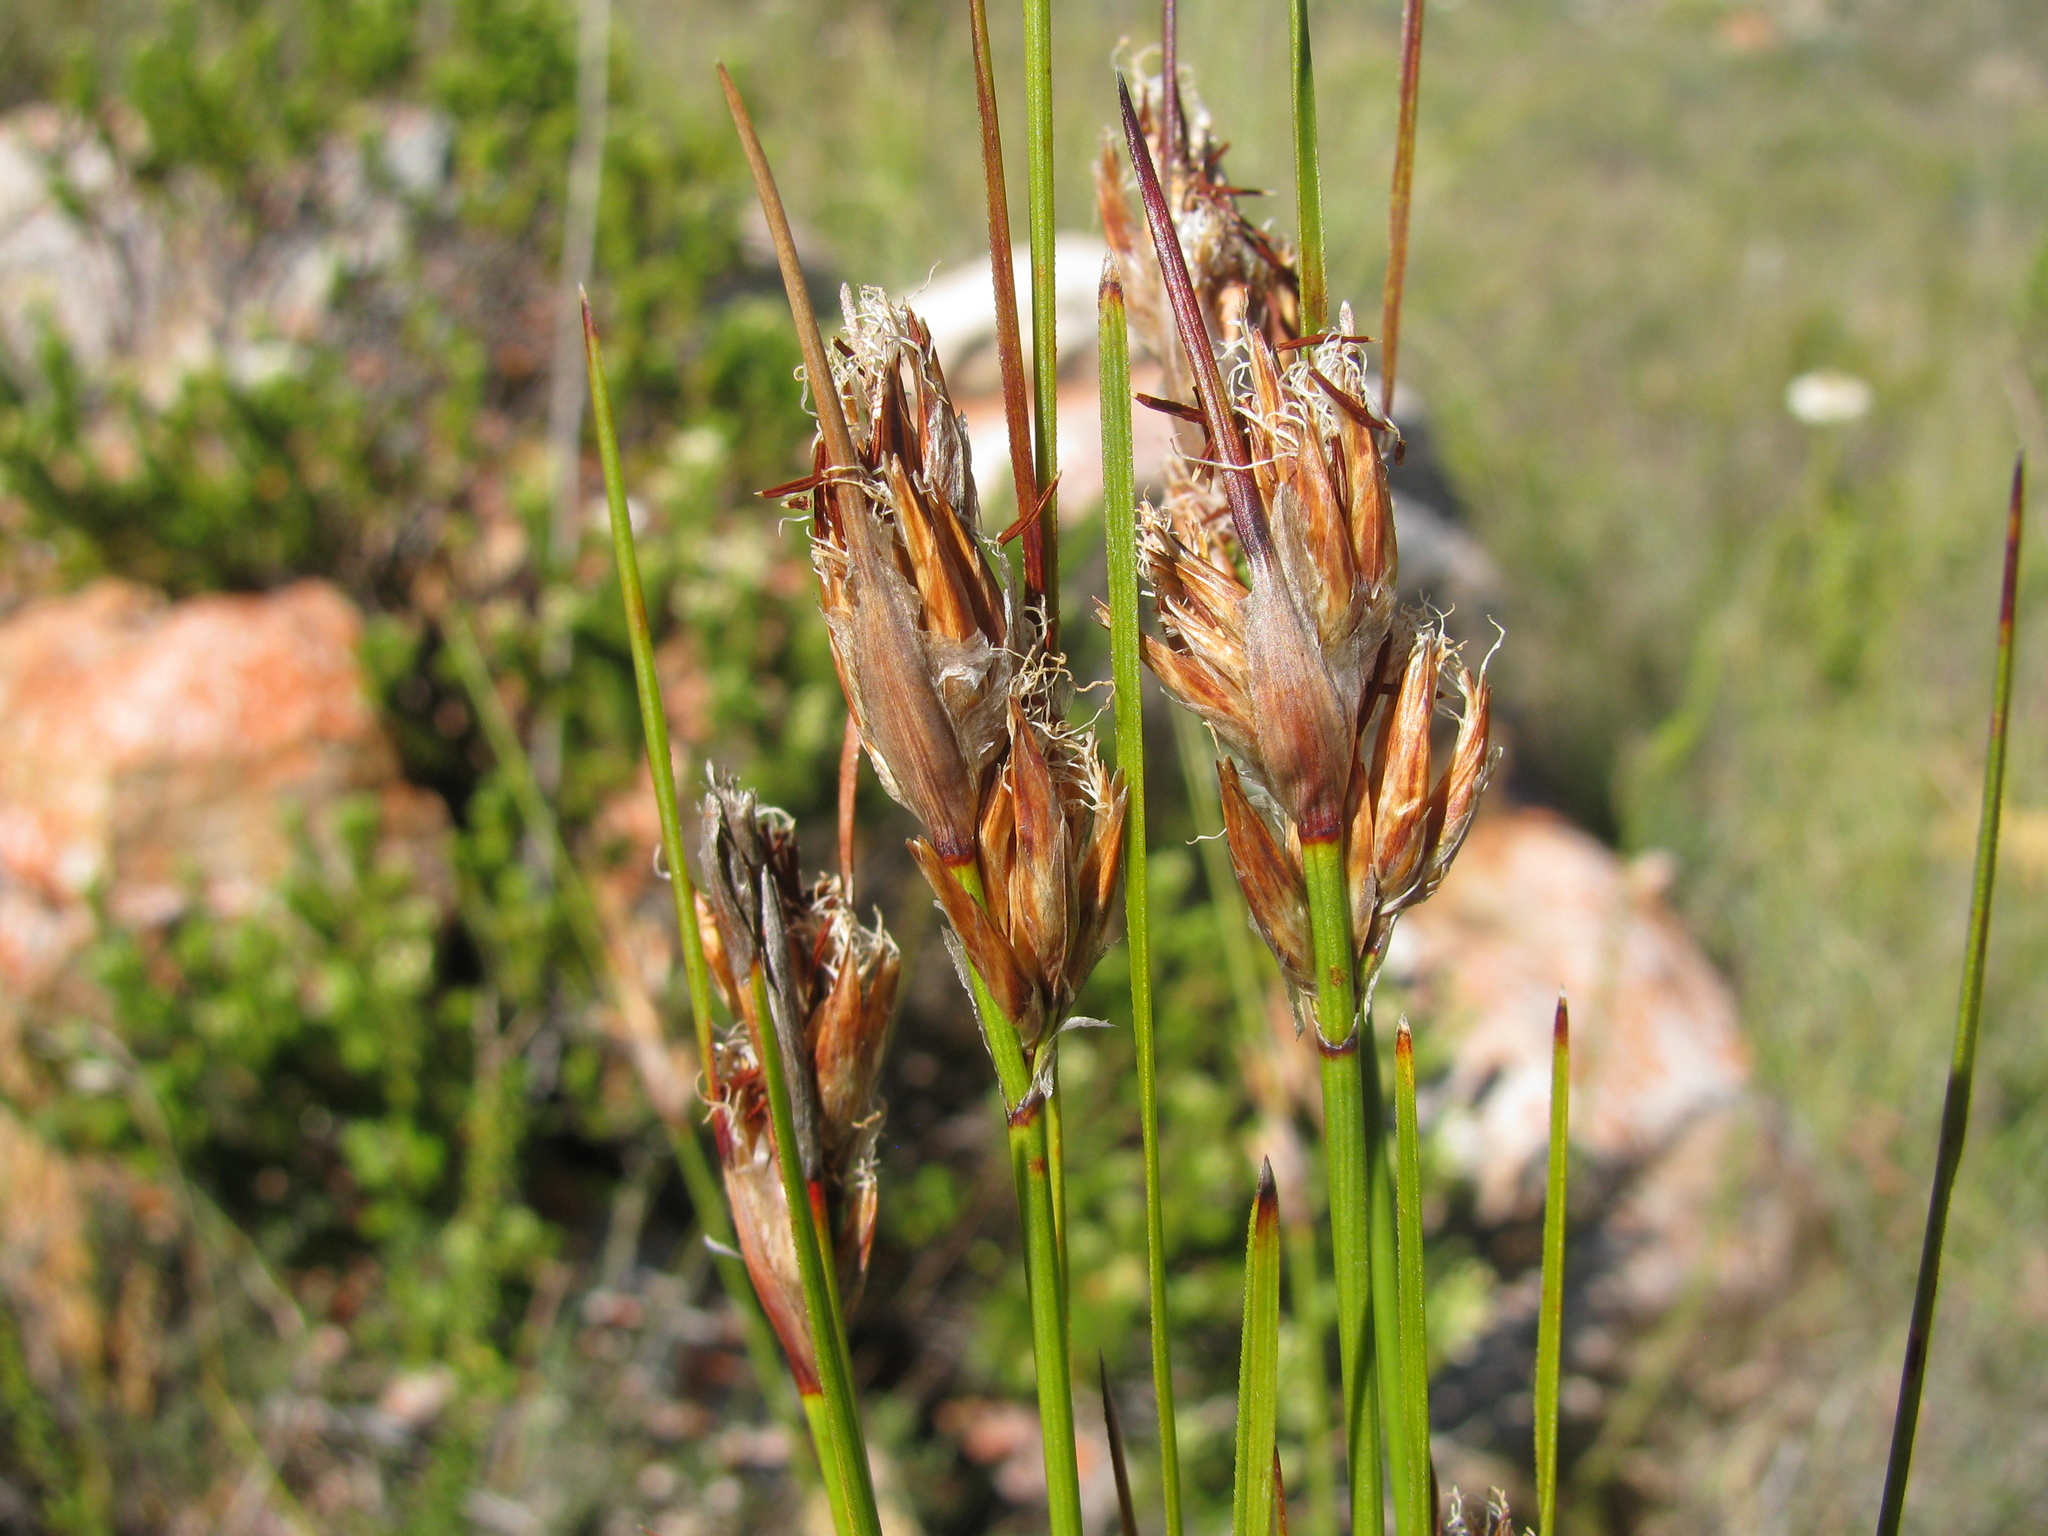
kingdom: Plantae
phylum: Tracheophyta
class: Liliopsida
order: Poales
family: Cyperaceae
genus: Schoenus
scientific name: Schoenus megacarpus
